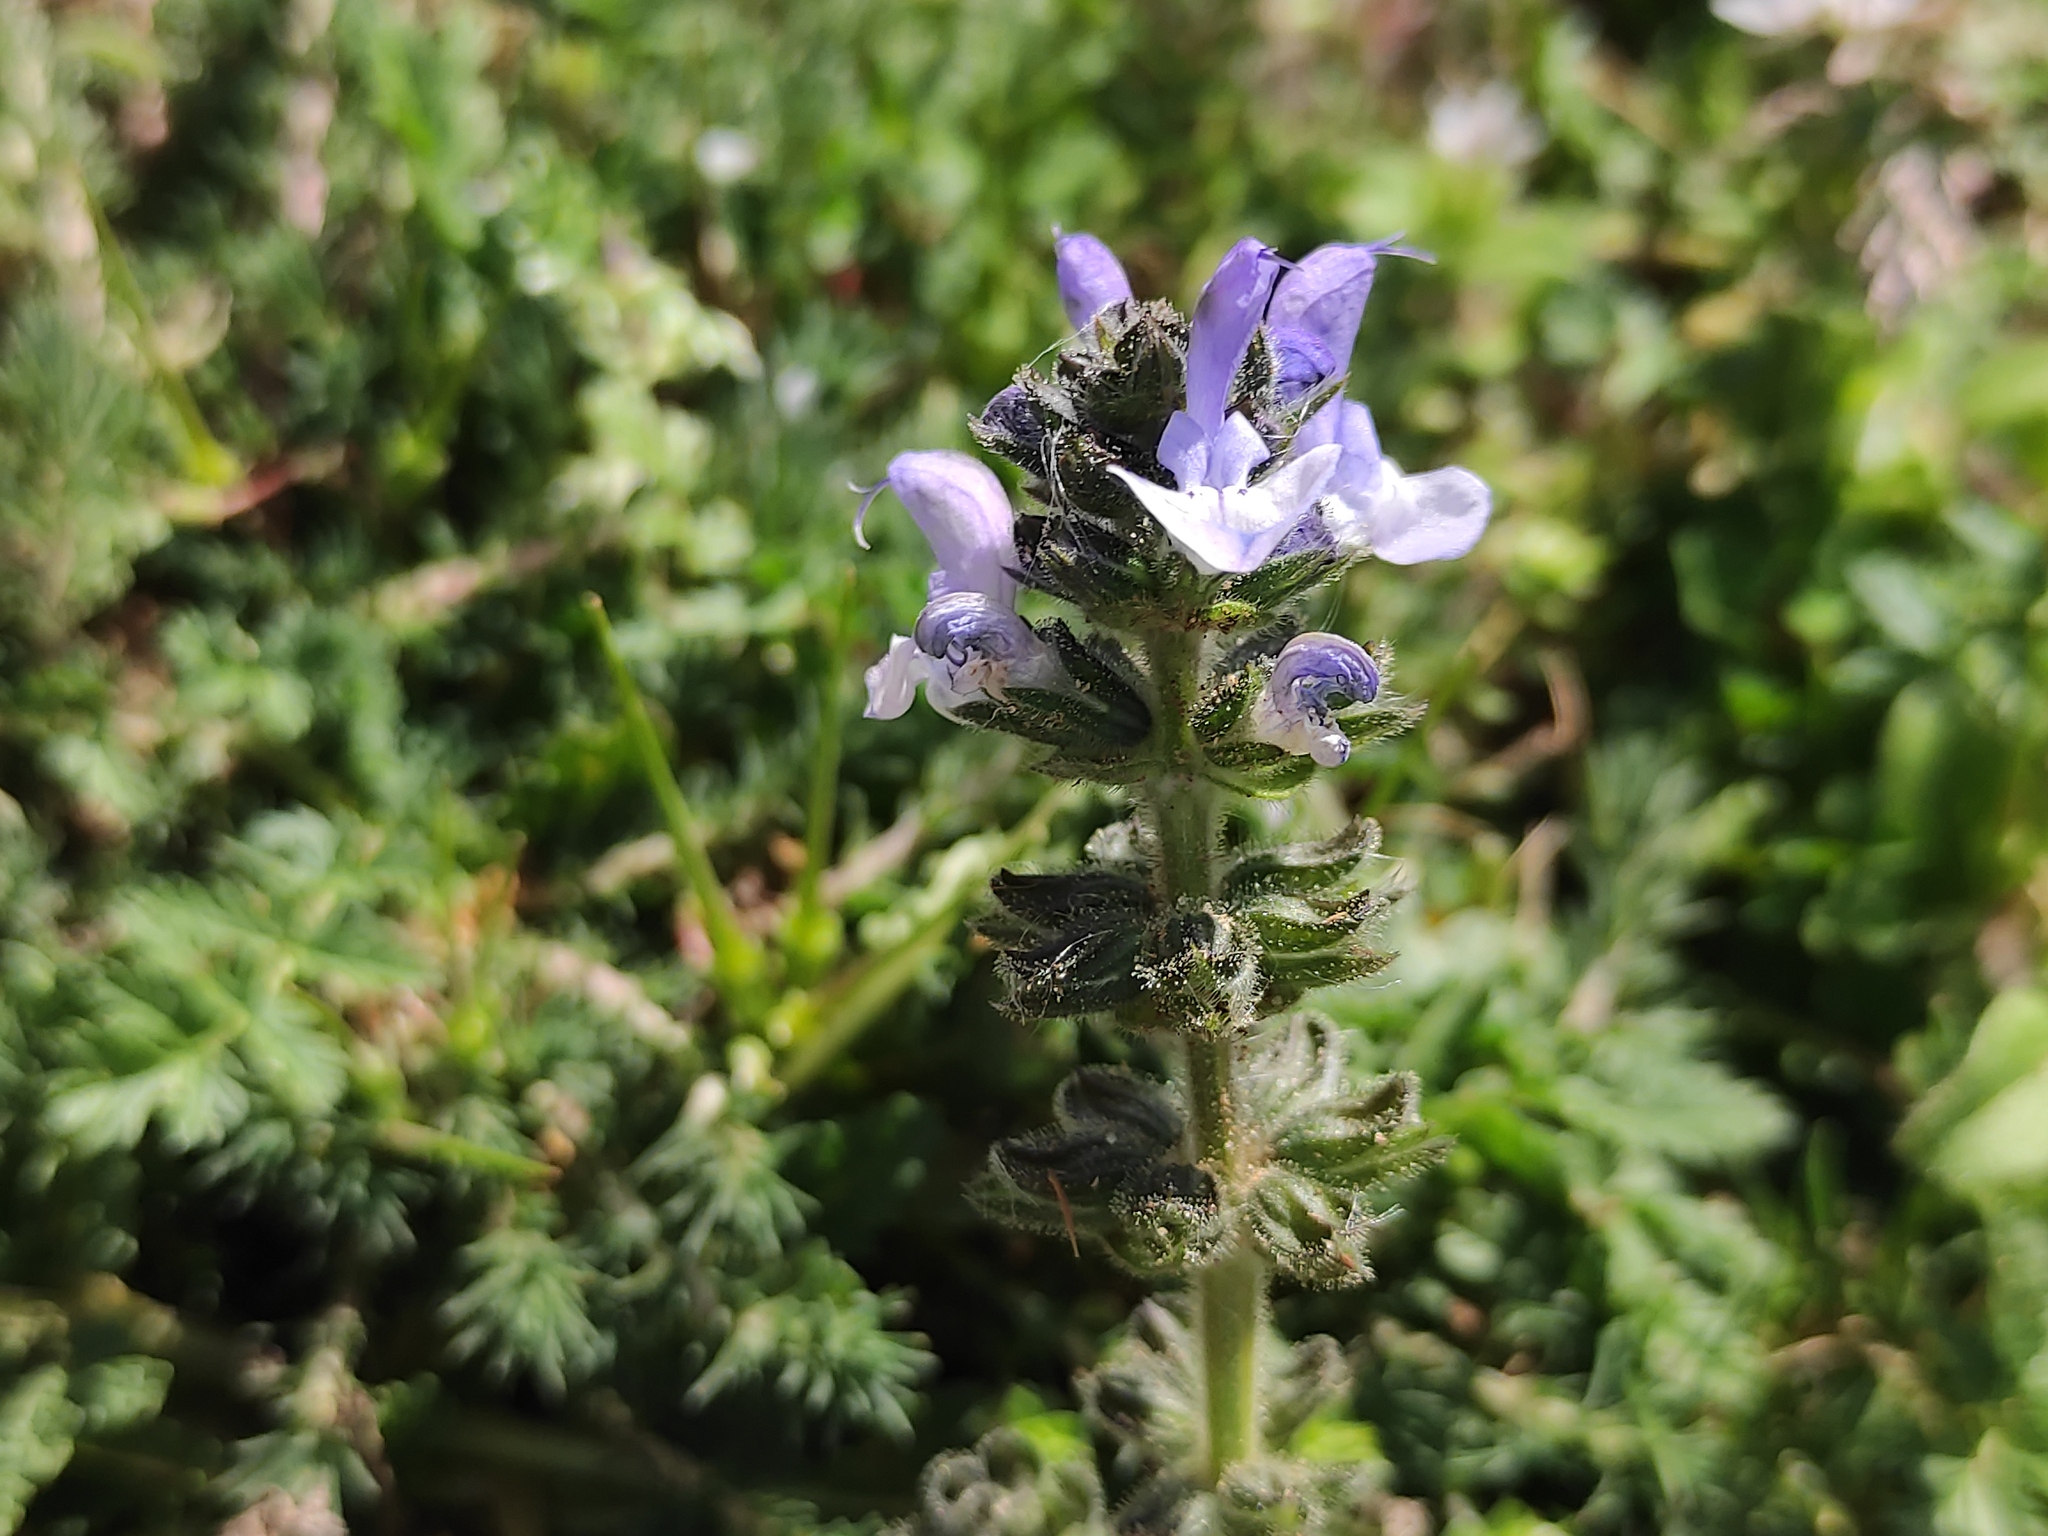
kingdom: Plantae
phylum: Tracheophyta
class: Magnoliopsida
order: Lamiales
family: Lamiaceae
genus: Salvia
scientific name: Salvia clandestina
